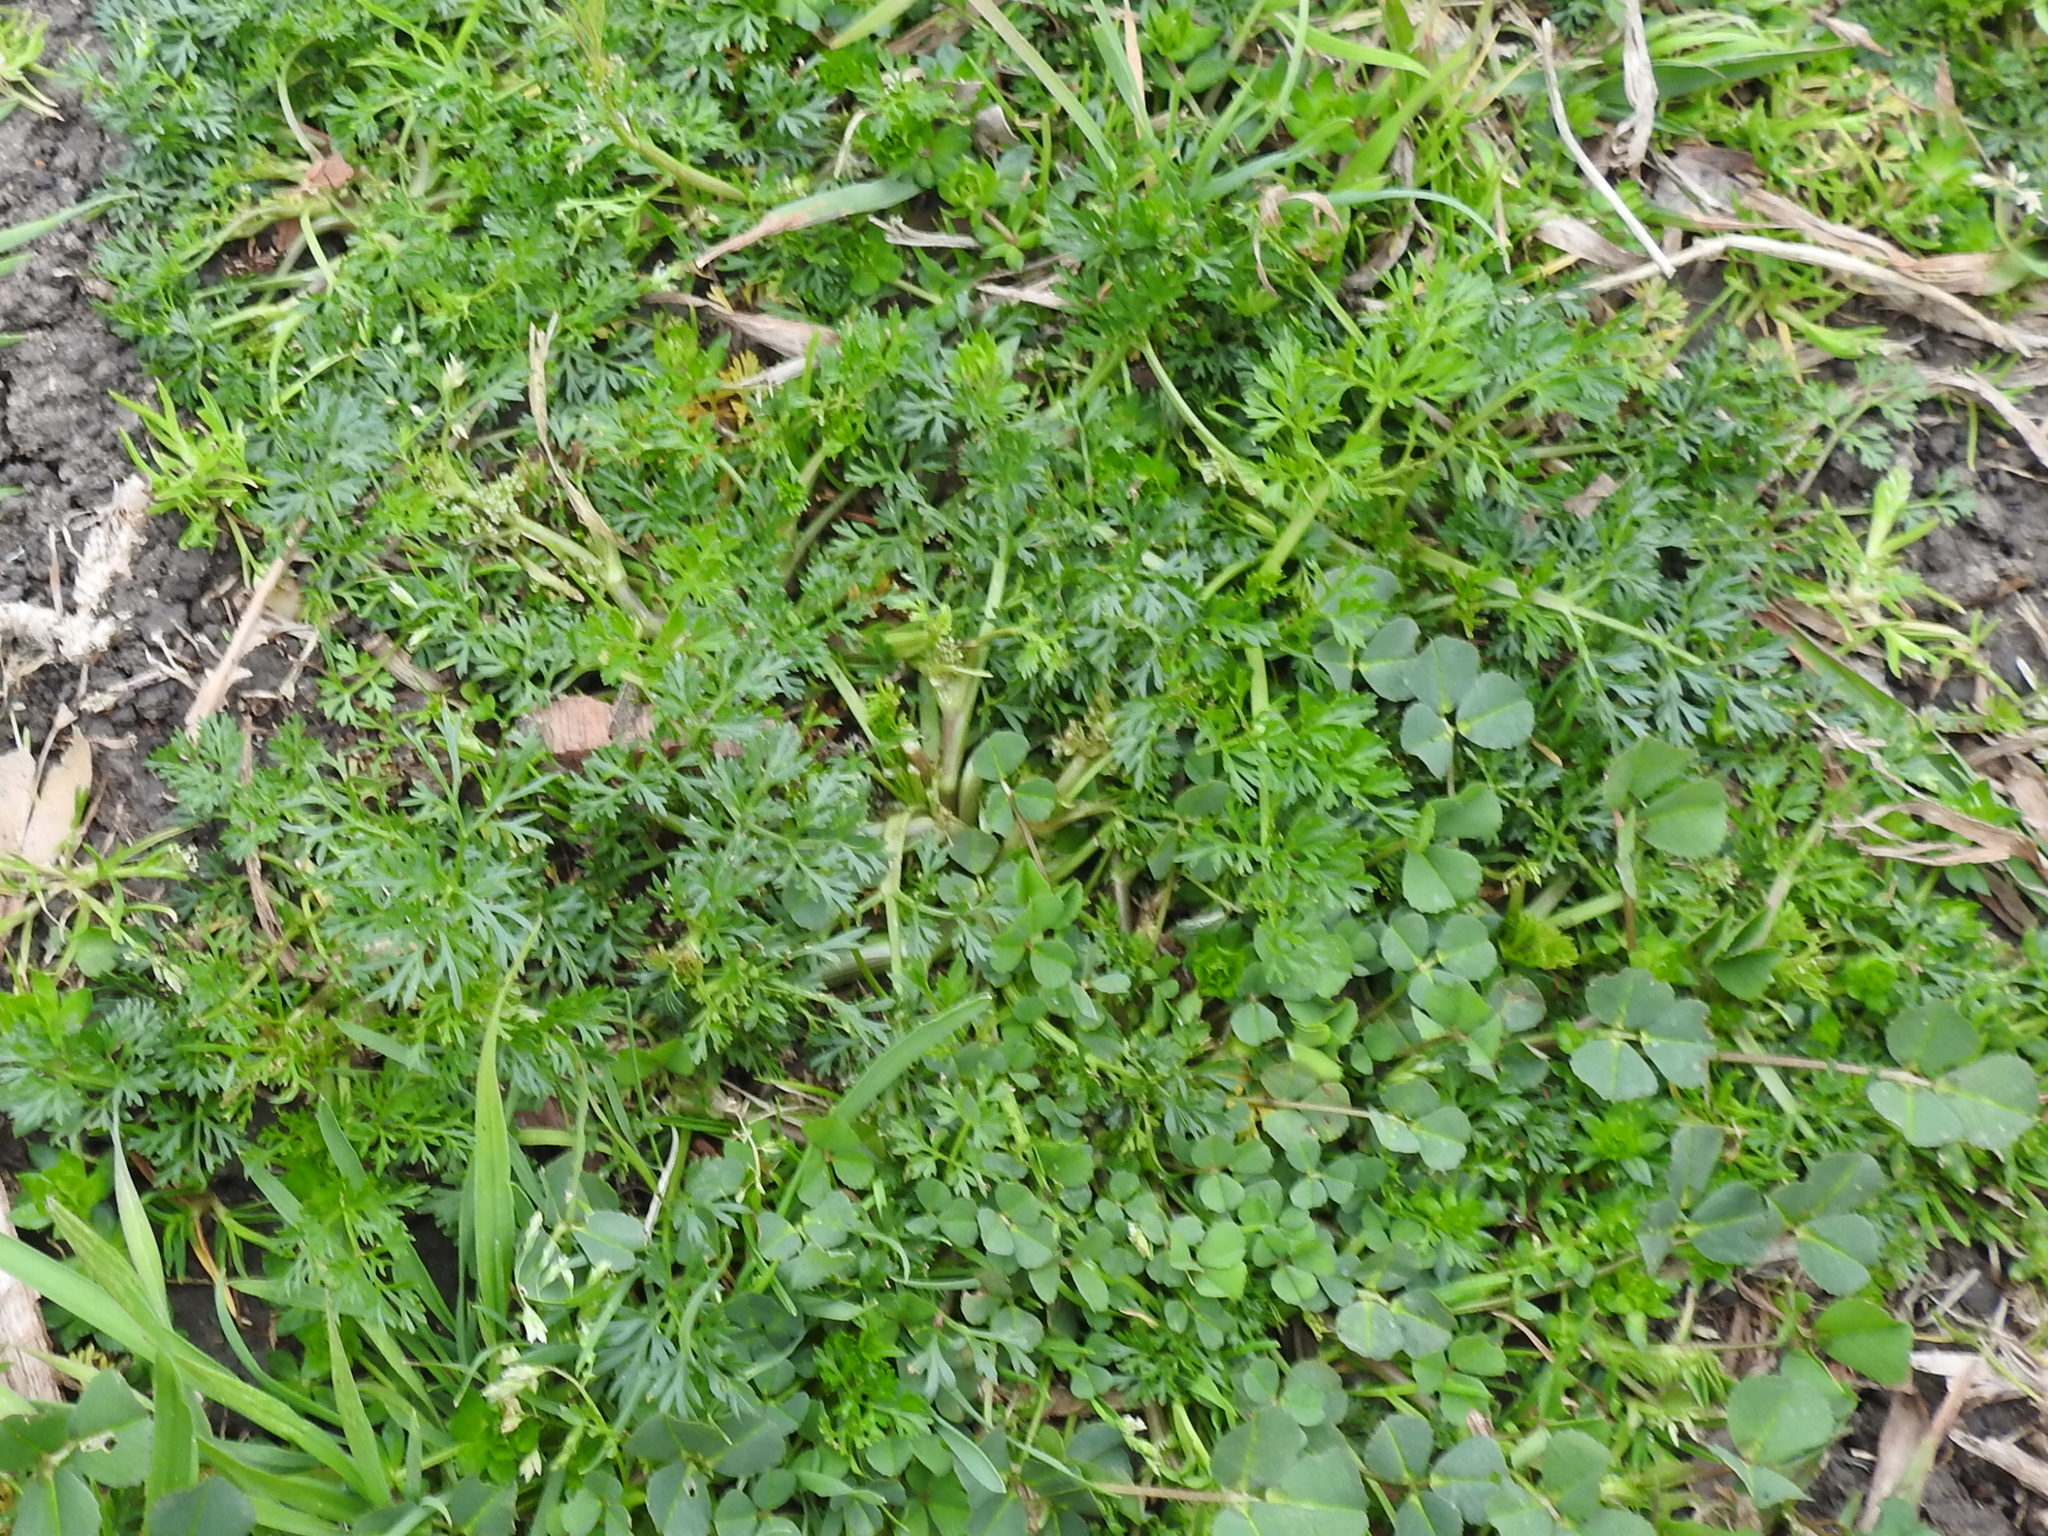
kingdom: Plantae
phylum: Tracheophyta
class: Magnoliopsida
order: Apiales
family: Apiaceae
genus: Cyclospermum
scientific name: Cyclospermum leptophyllum
